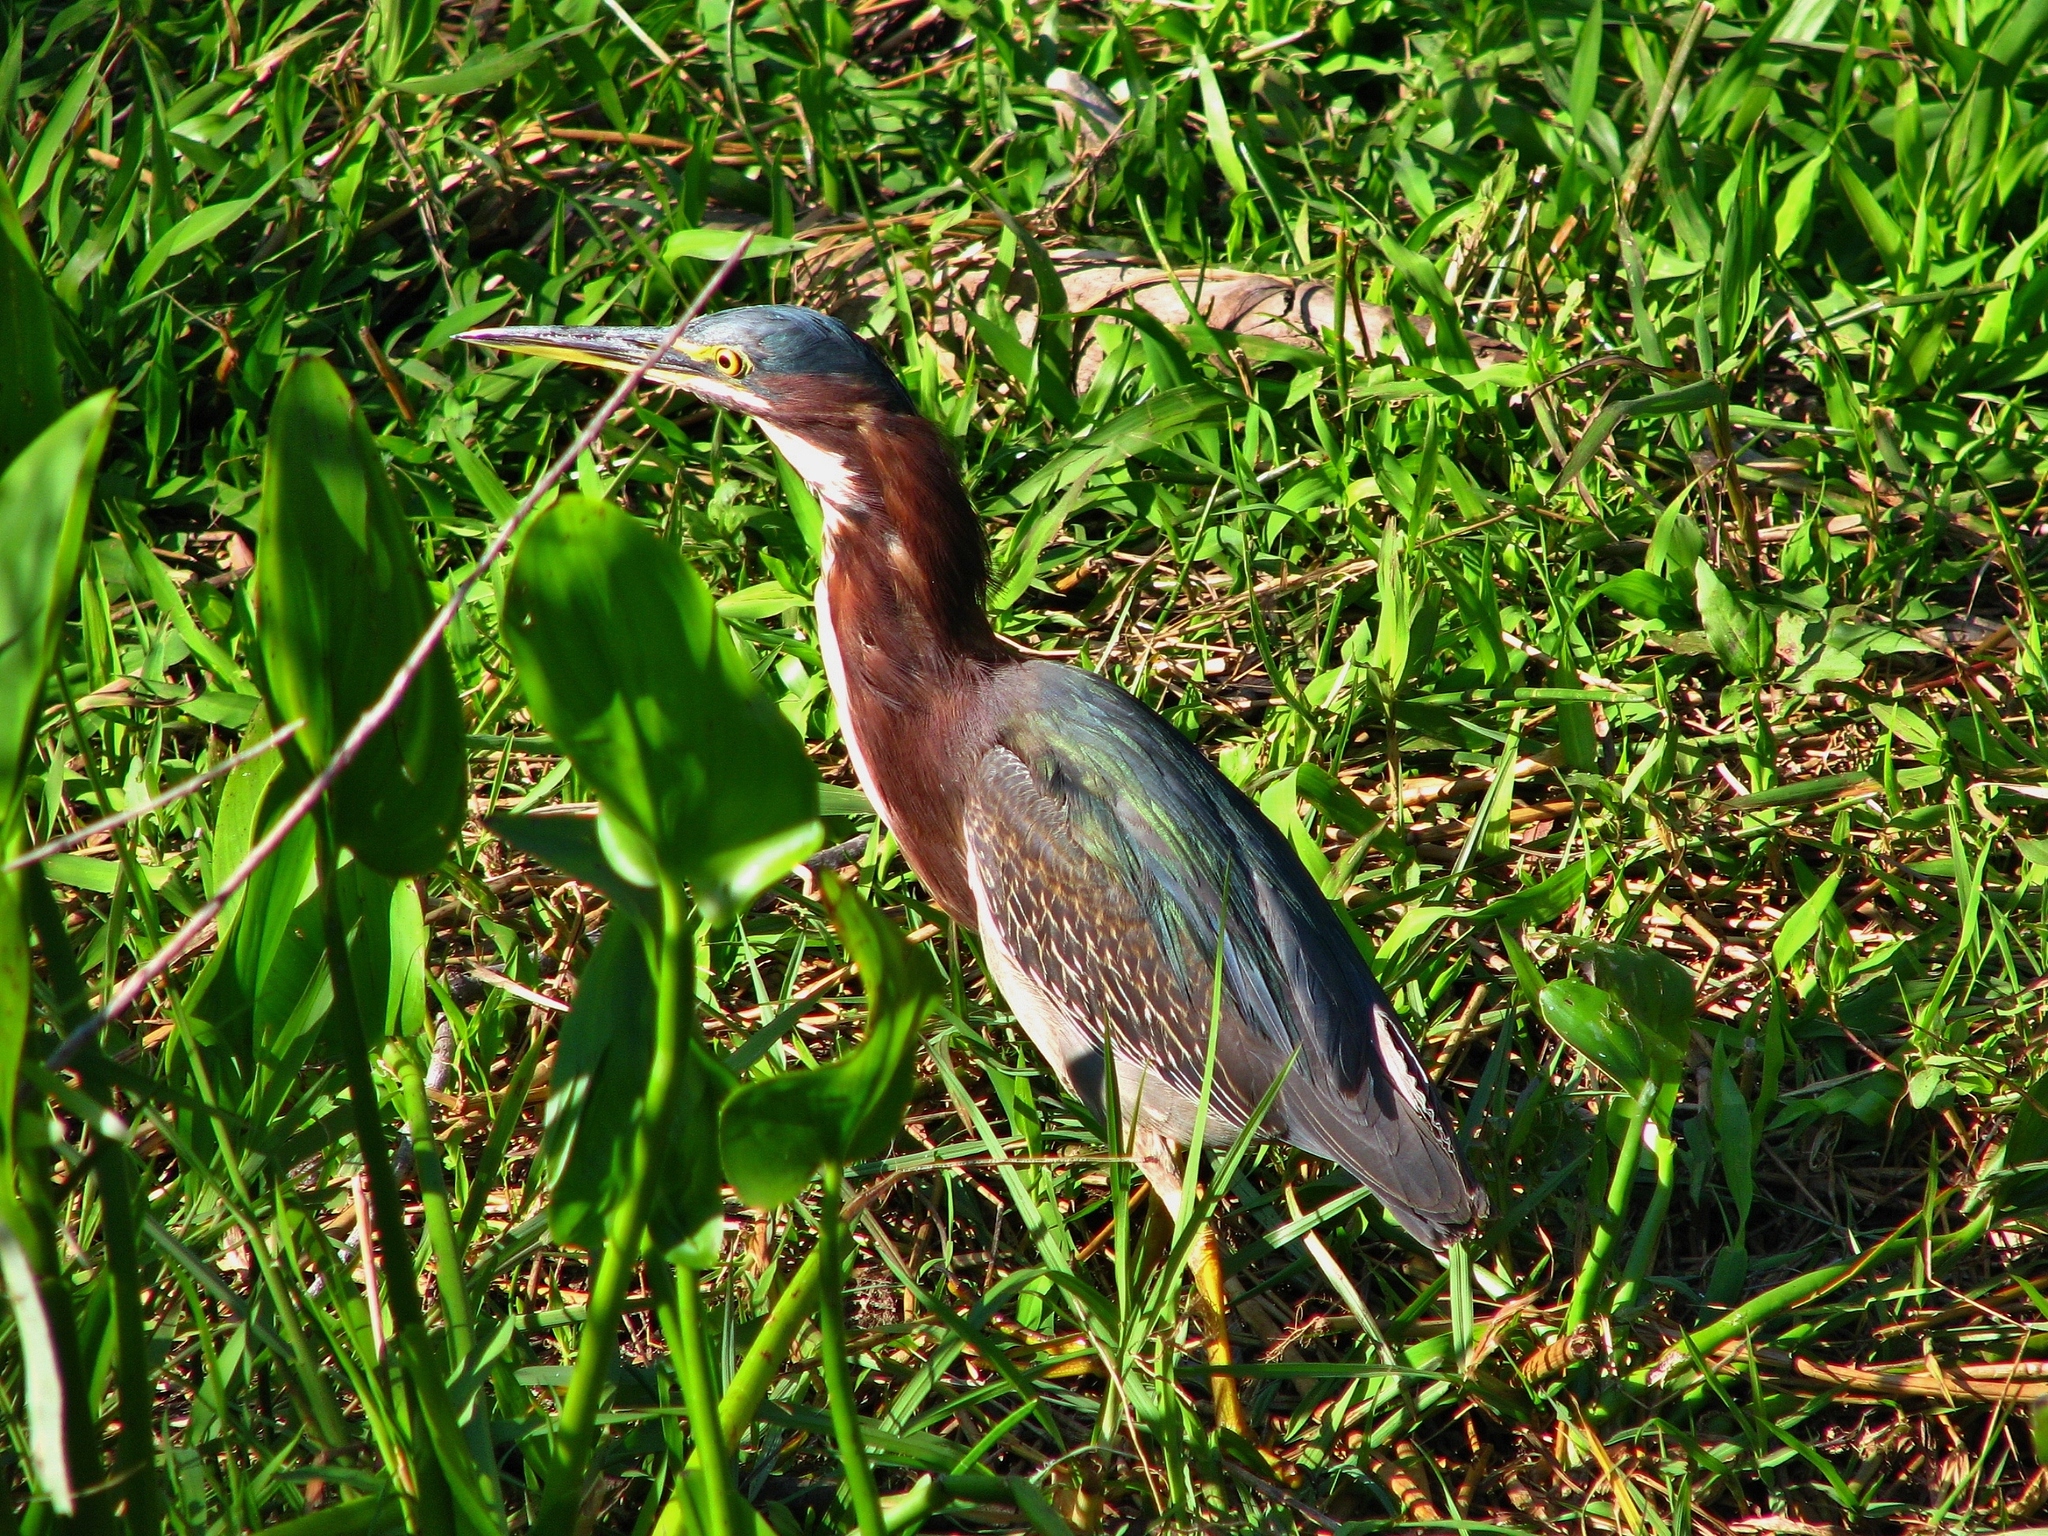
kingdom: Animalia
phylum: Chordata
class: Aves
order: Pelecaniformes
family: Ardeidae
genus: Butorides
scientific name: Butorides virescens
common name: Green heron
